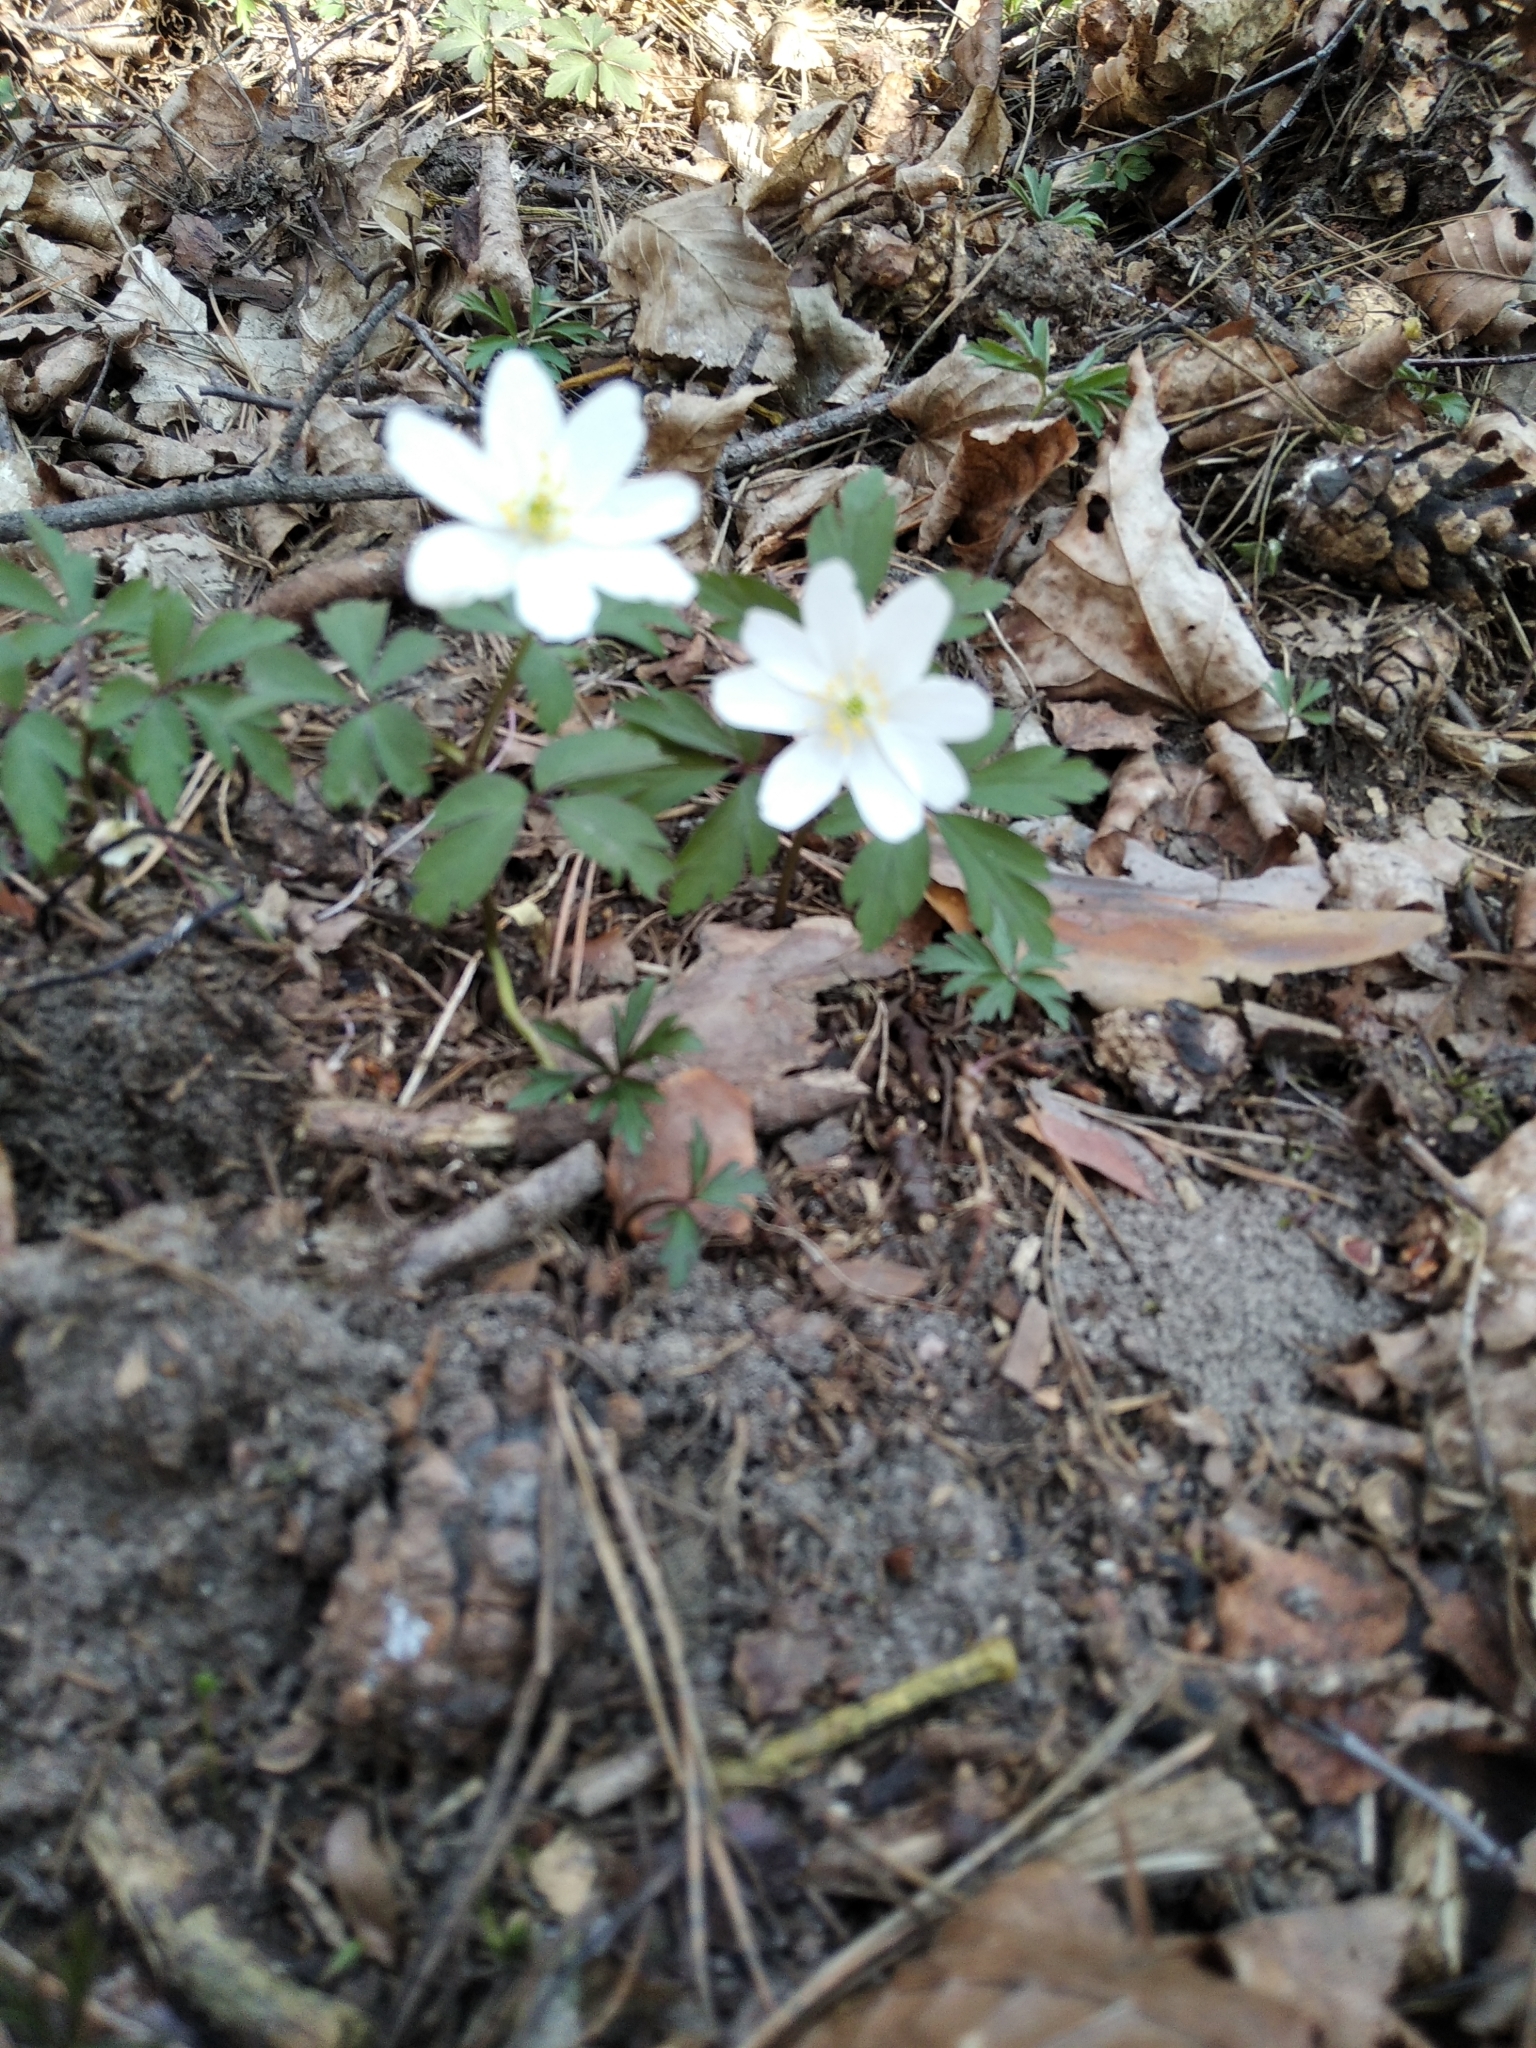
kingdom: Plantae
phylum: Tracheophyta
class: Magnoliopsida
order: Ranunculales
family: Ranunculaceae
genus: Anemone
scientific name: Anemone nemorosa
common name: Wood anemone
